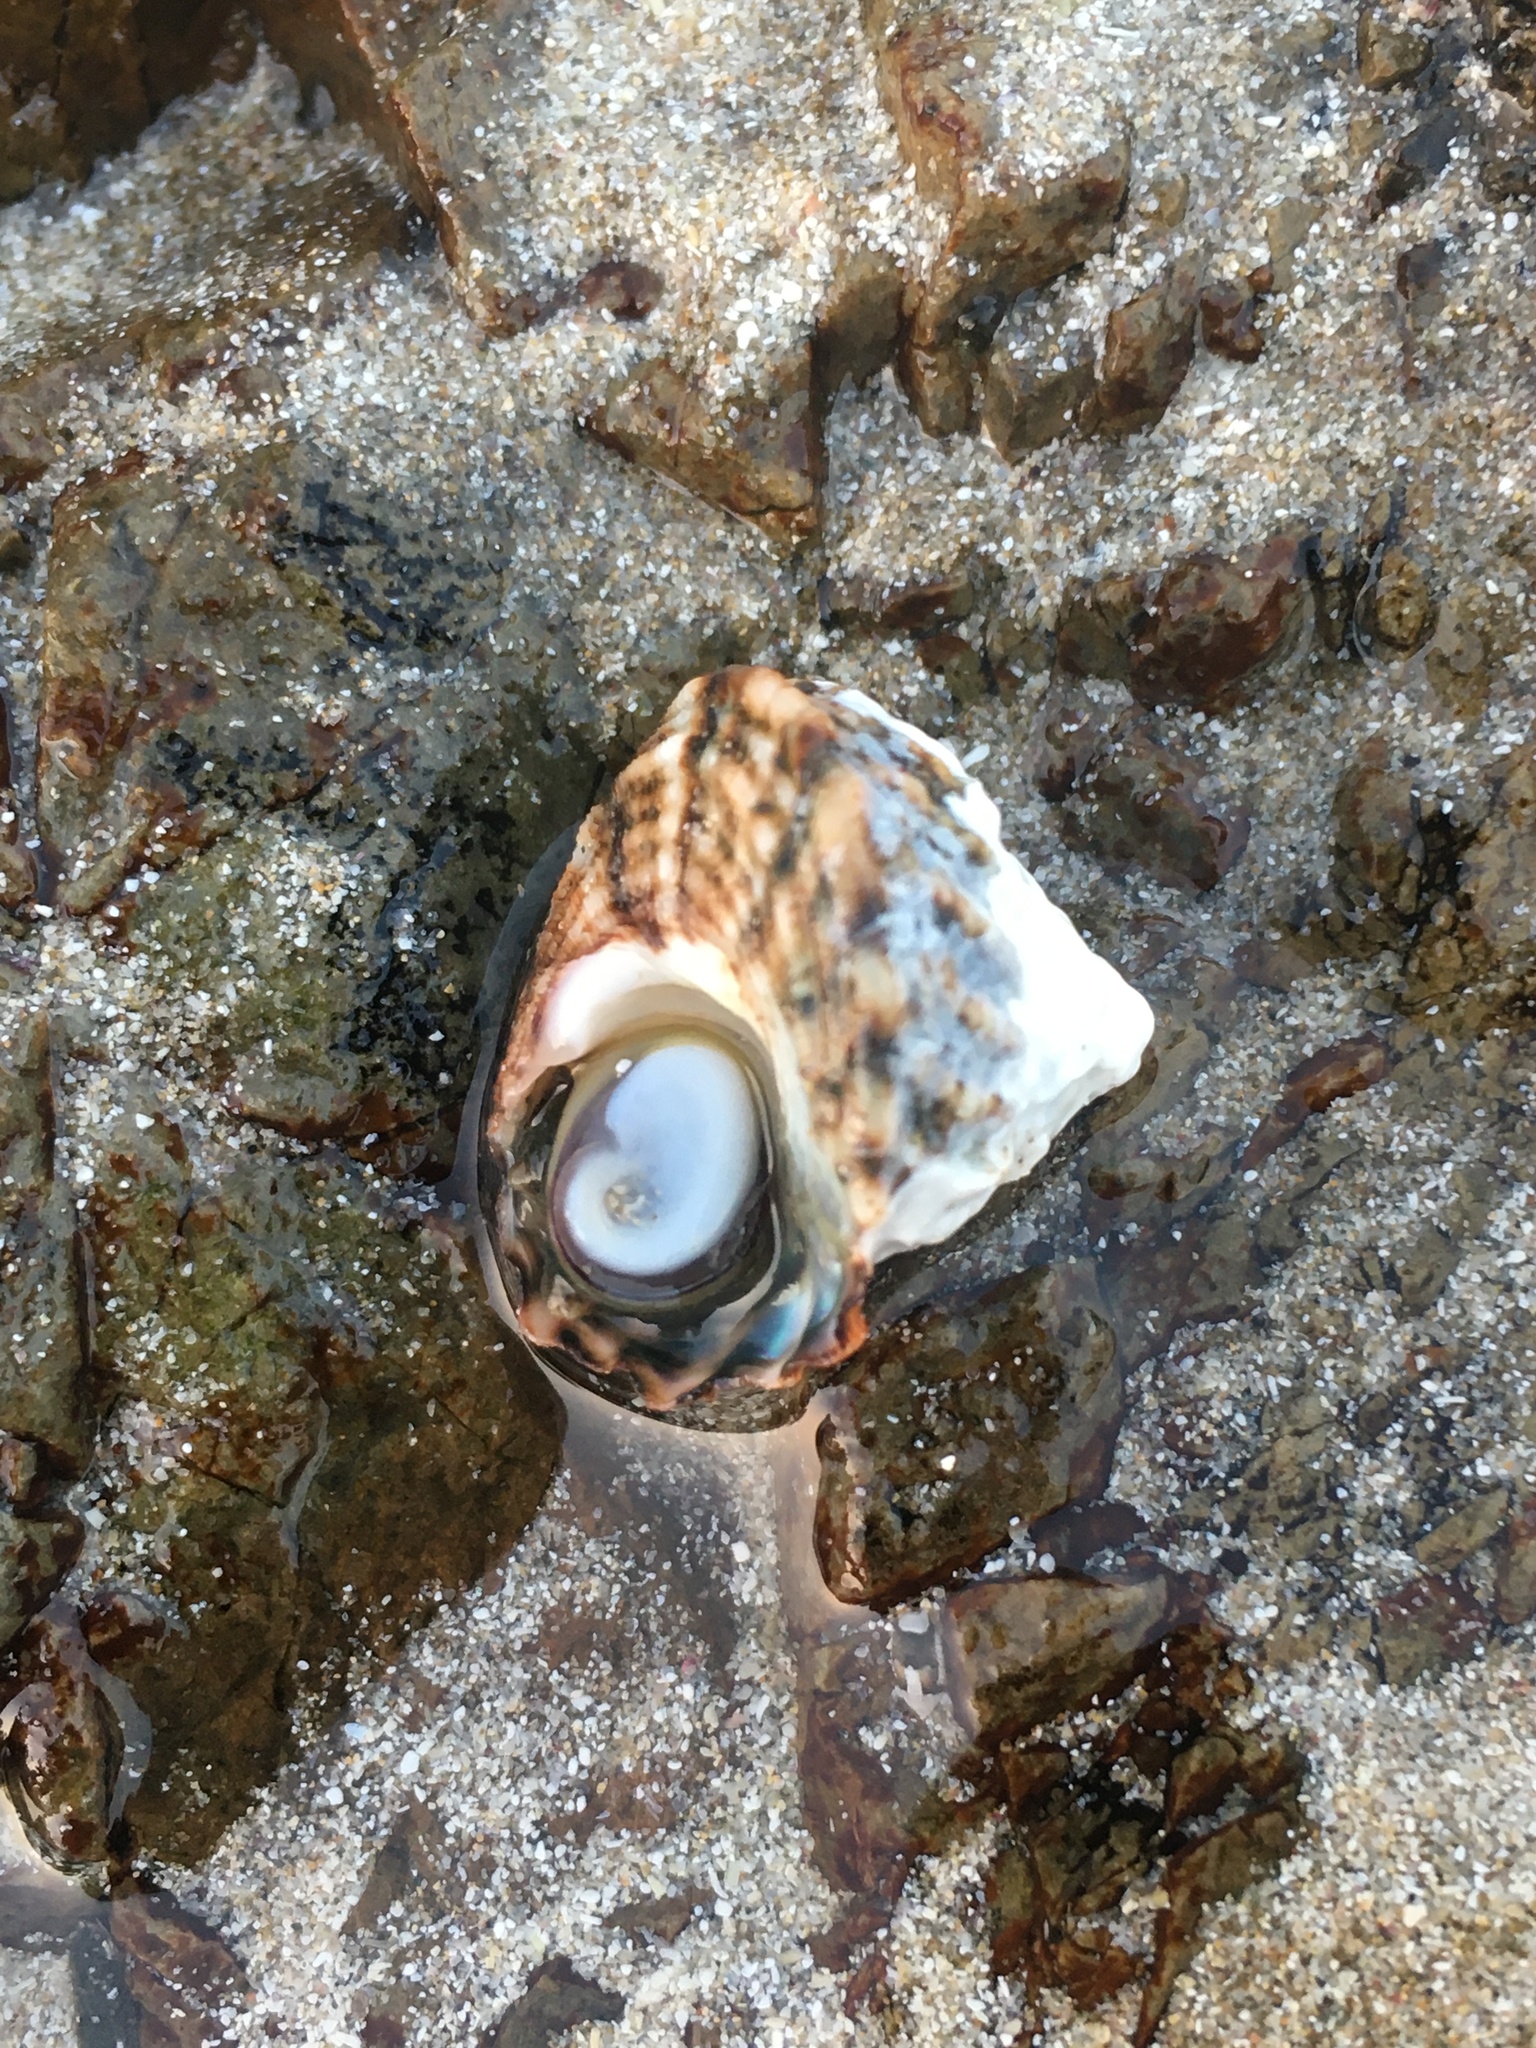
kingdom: Animalia
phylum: Mollusca
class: Gastropoda
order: Trochida
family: Turbinidae
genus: Cookia
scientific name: Cookia sulcata
